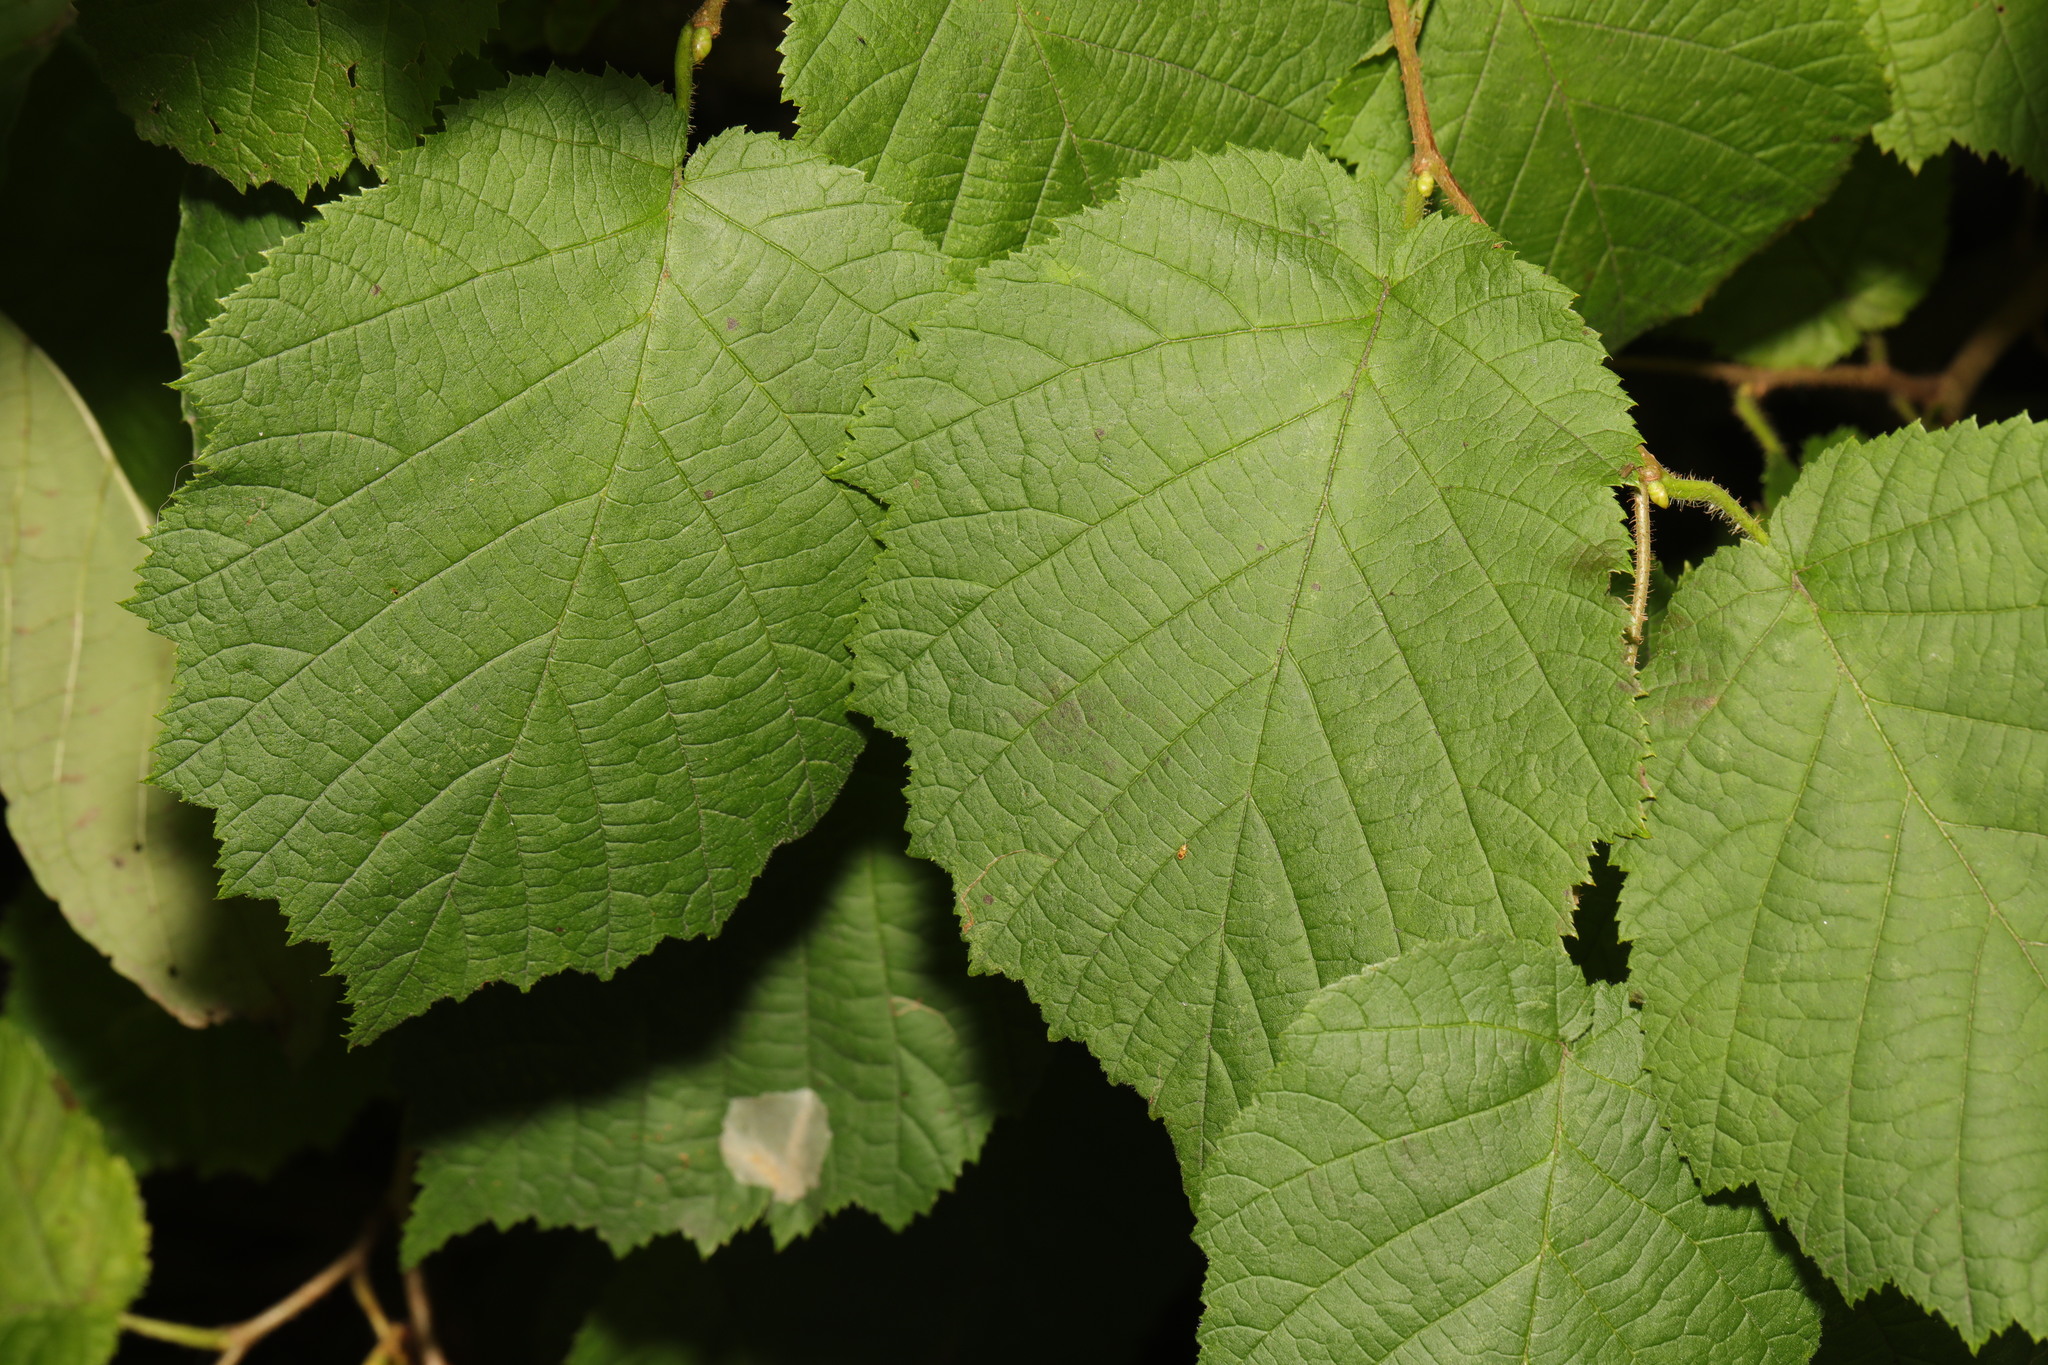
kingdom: Plantae
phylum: Tracheophyta
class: Magnoliopsida
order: Fagales
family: Betulaceae
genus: Corylus
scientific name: Corylus avellana
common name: European hazel
